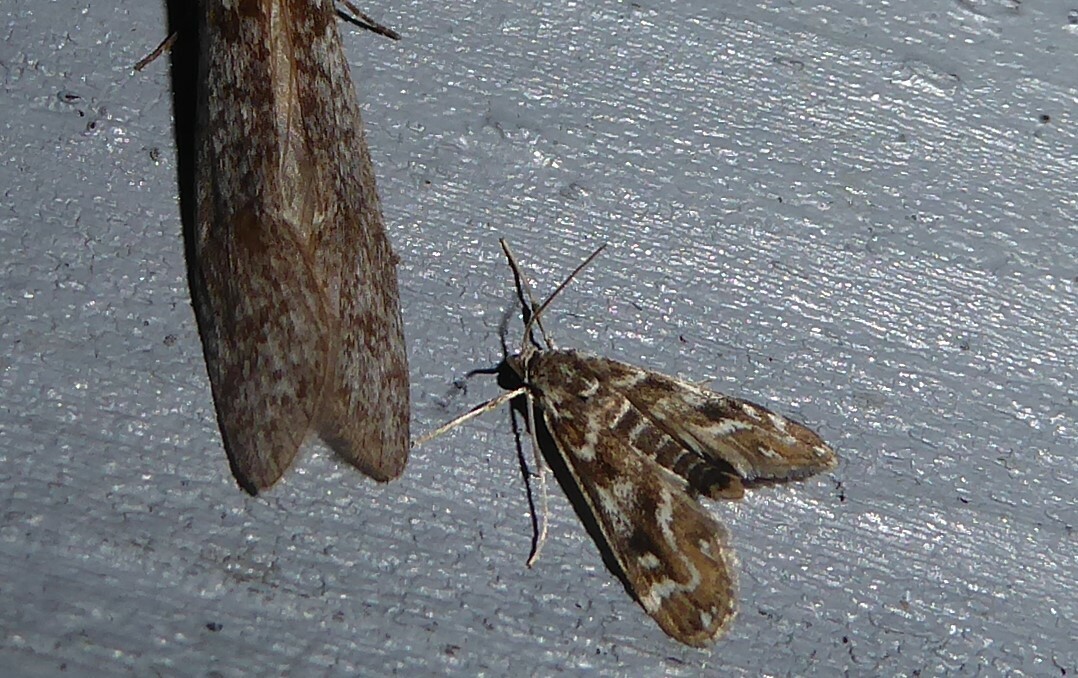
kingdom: Animalia
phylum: Arthropoda
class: Insecta
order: Lepidoptera
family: Crambidae
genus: Hygraula
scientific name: Hygraula nitens
